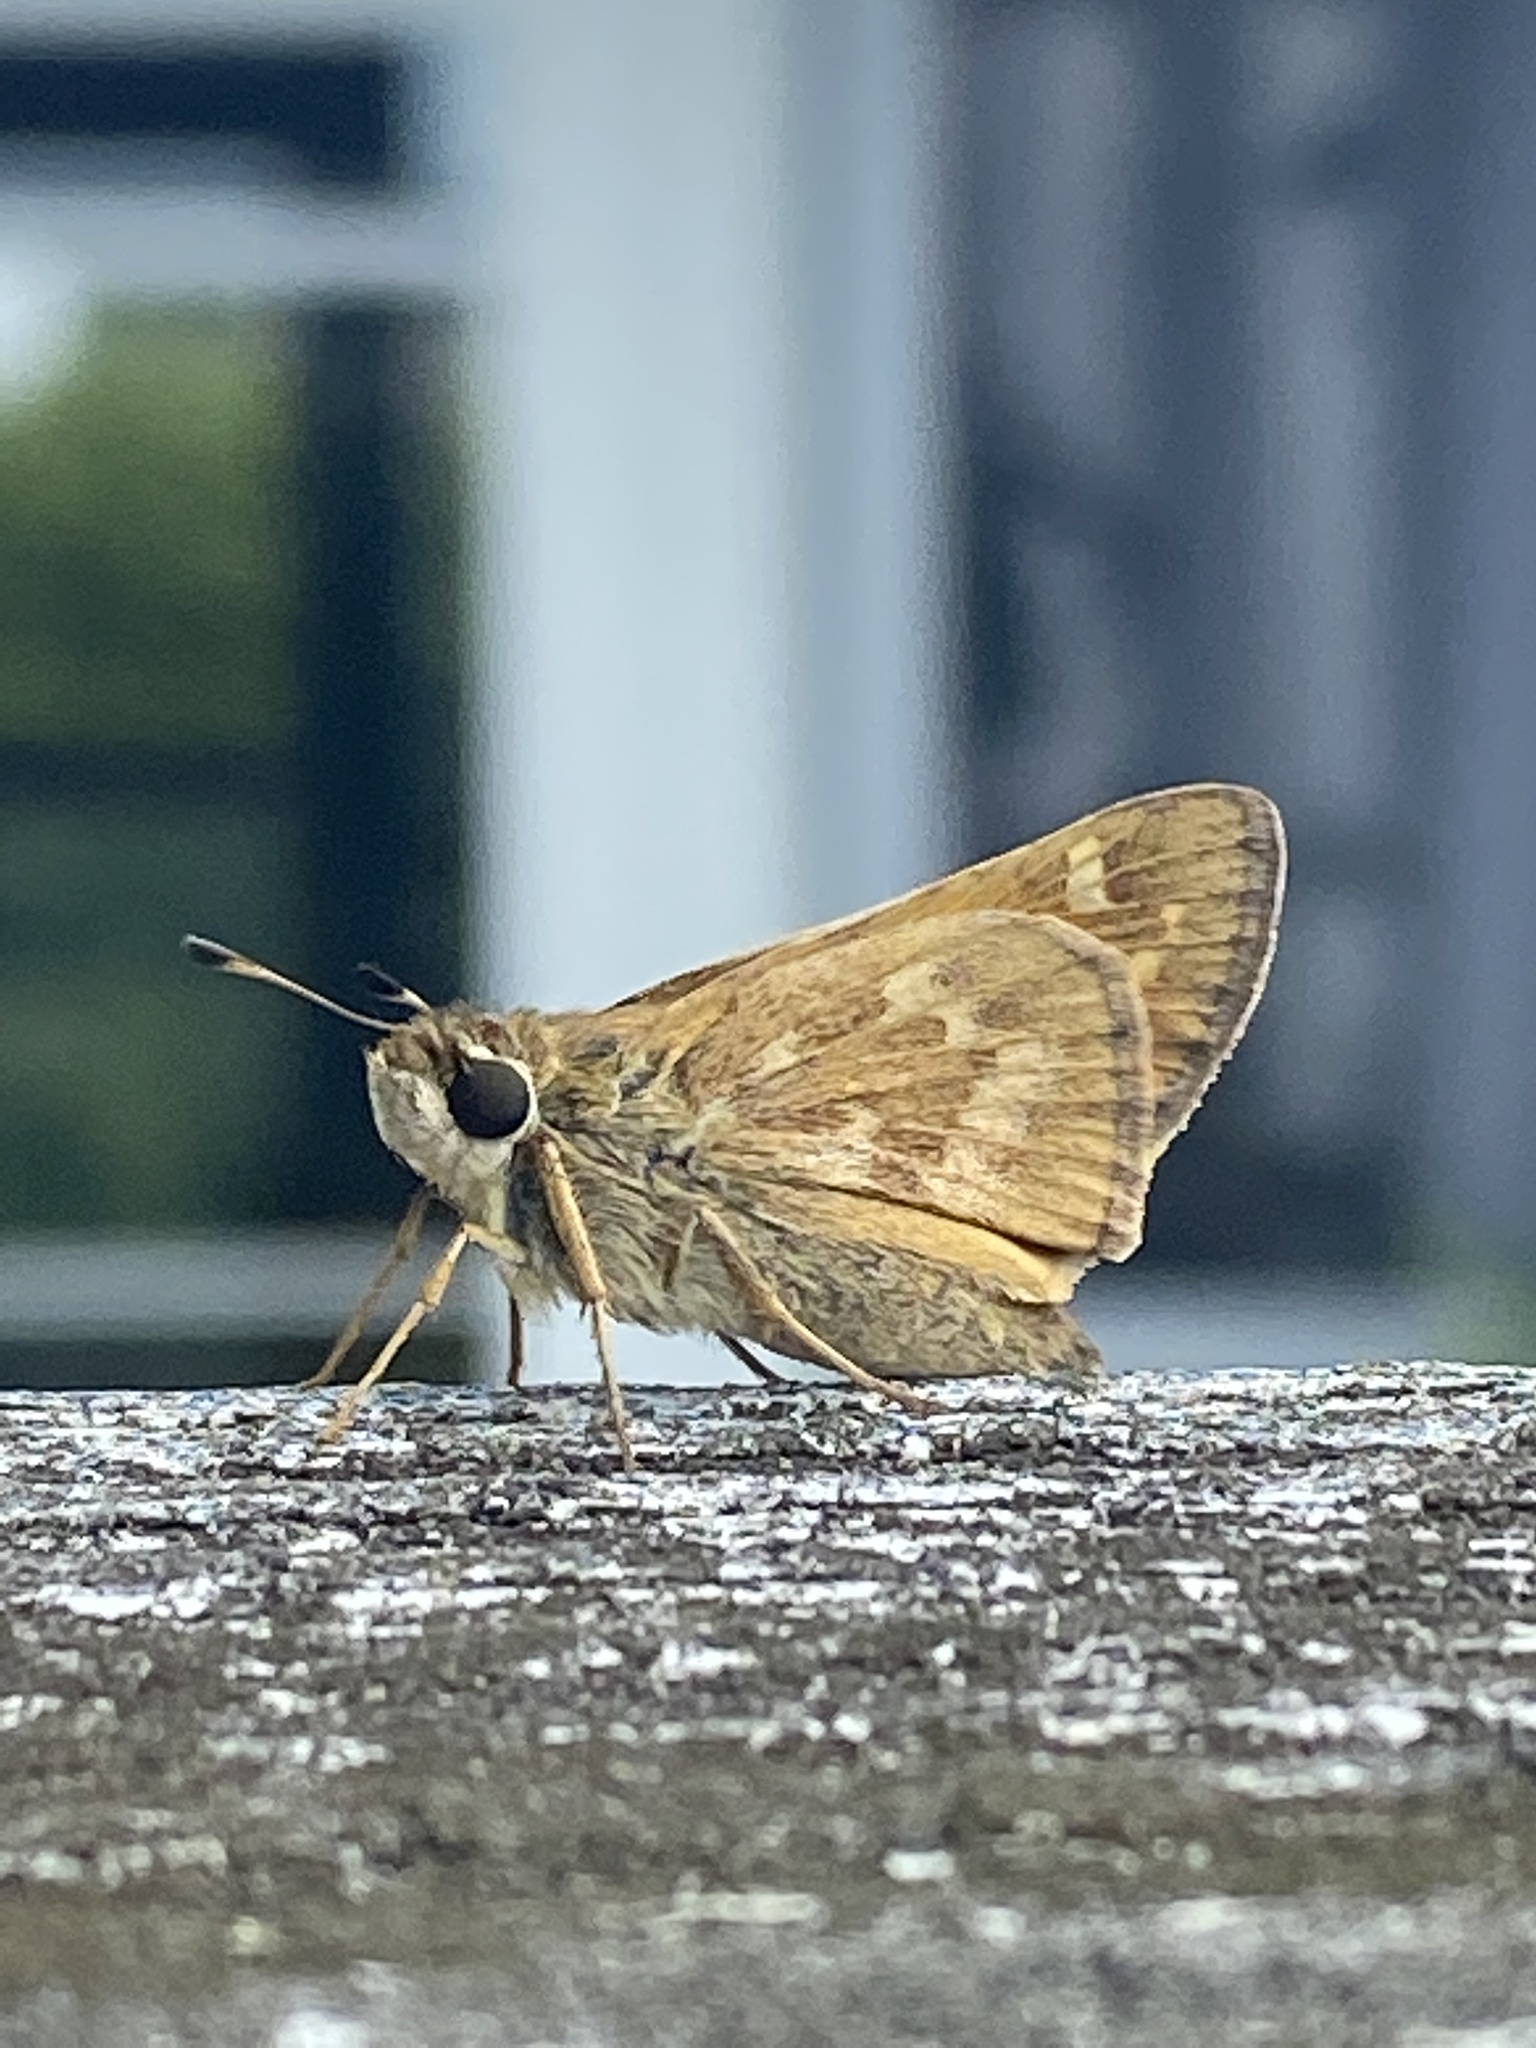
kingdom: Animalia
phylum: Arthropoda
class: Insecta
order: Lepidoptera
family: Hesperiidae
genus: Atalopedes
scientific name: Atalopedes
